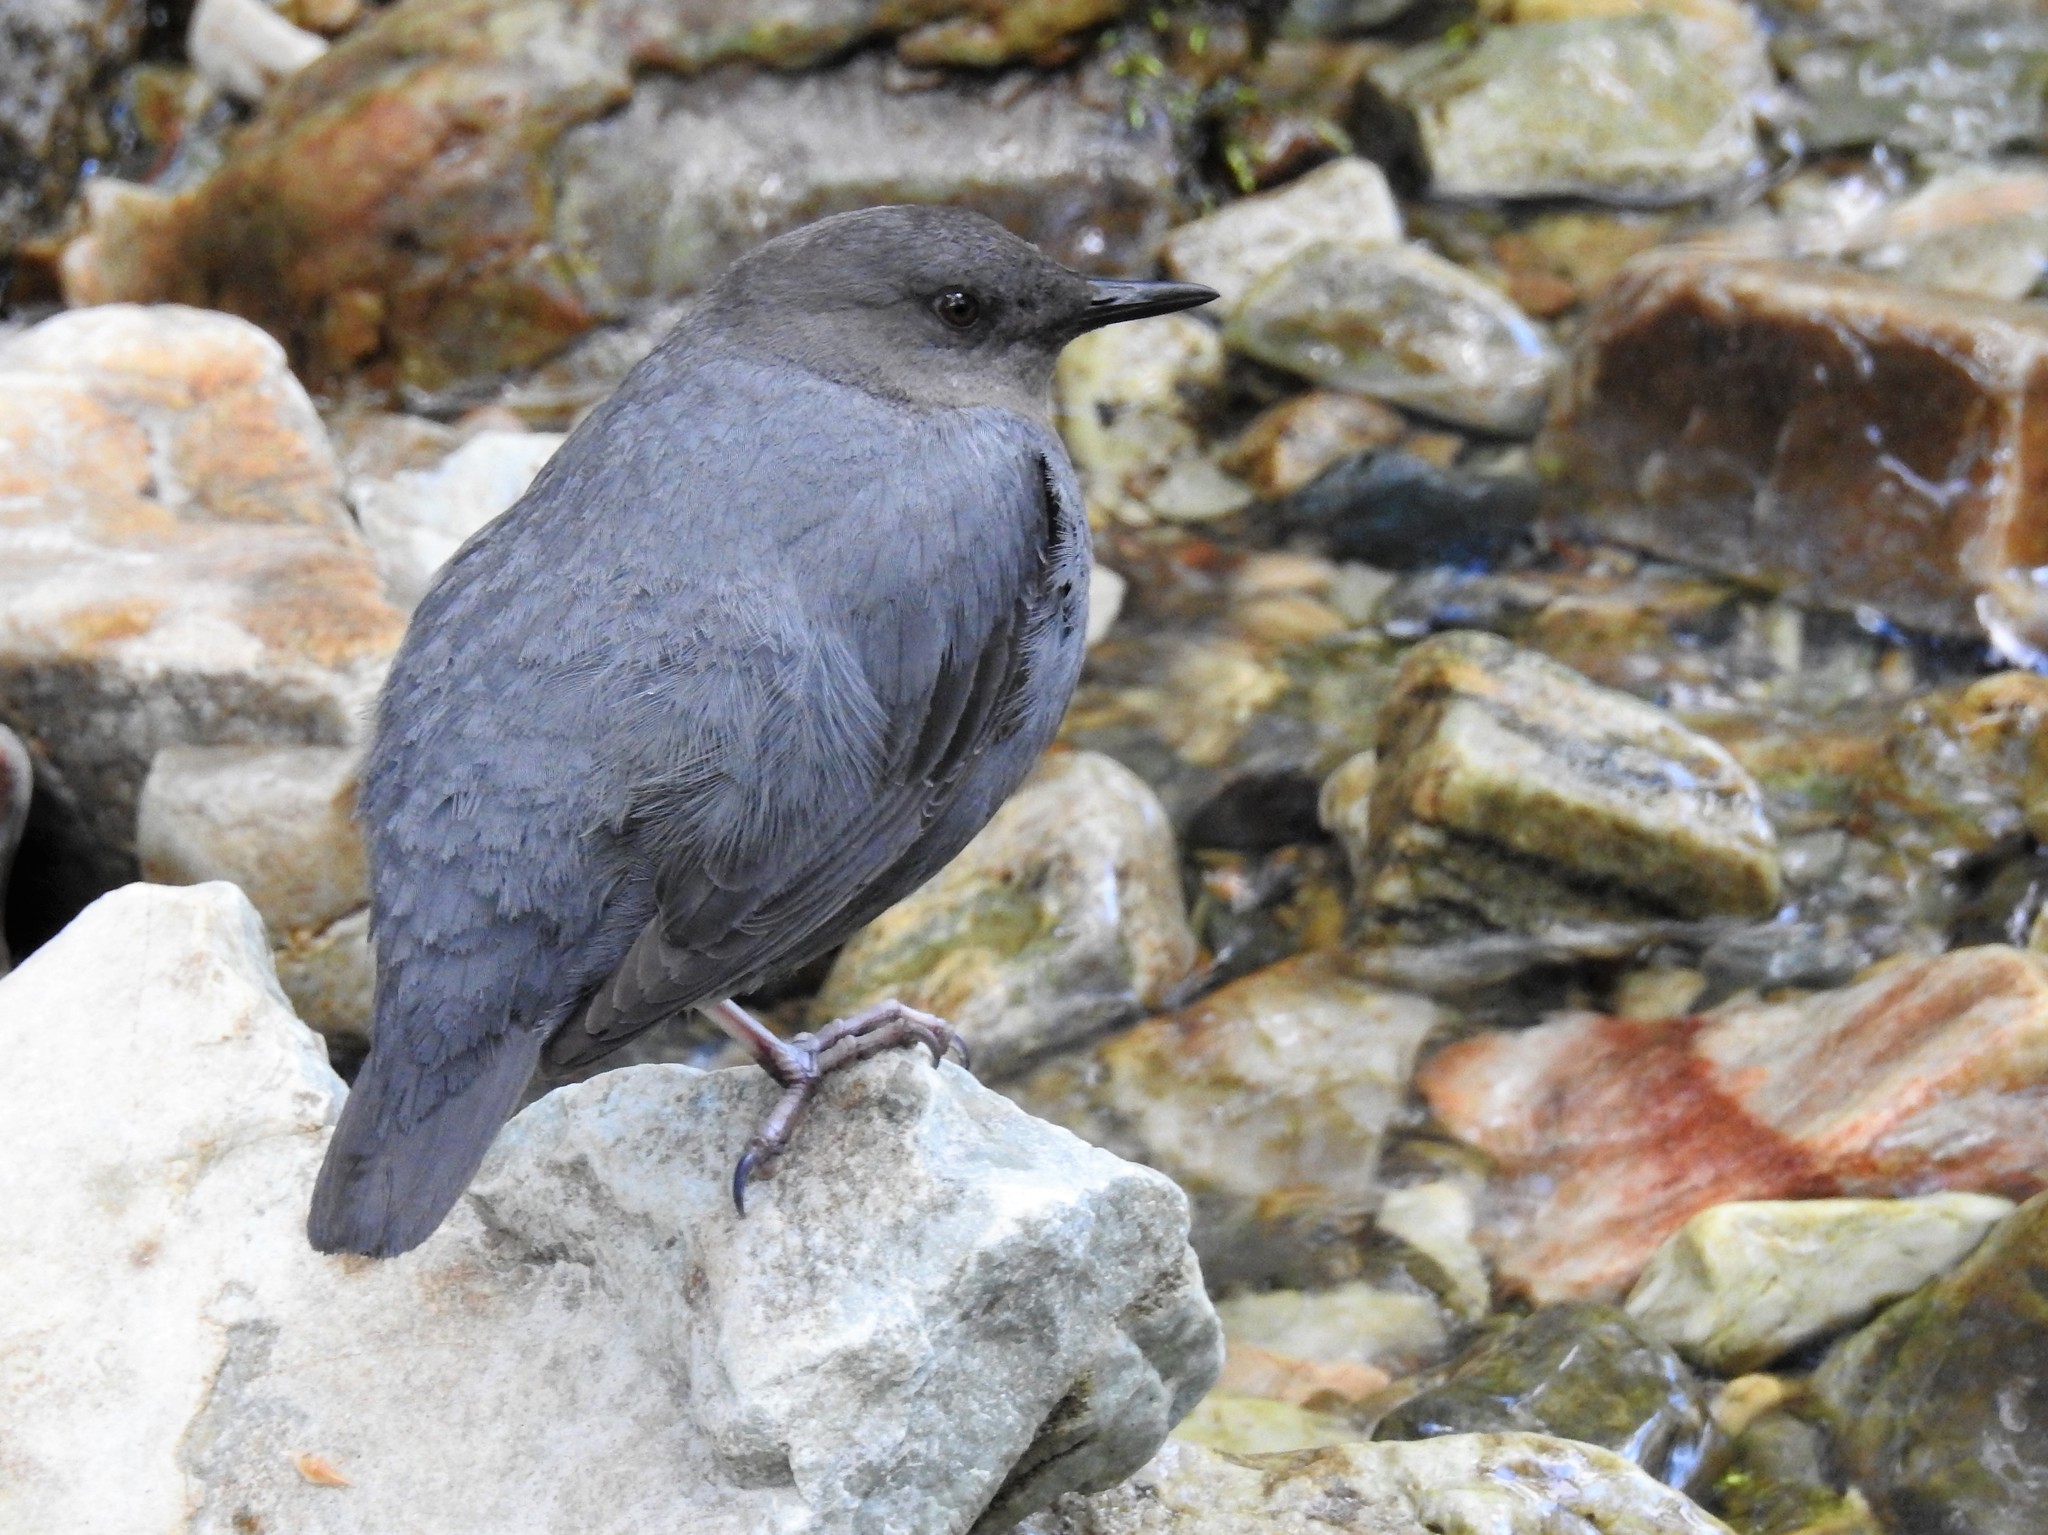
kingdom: Animalia
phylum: Chordata
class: Aves
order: Passeriformes
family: Cinclidae
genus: Cinclus
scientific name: Cinclus mexicanus
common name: American dipper
